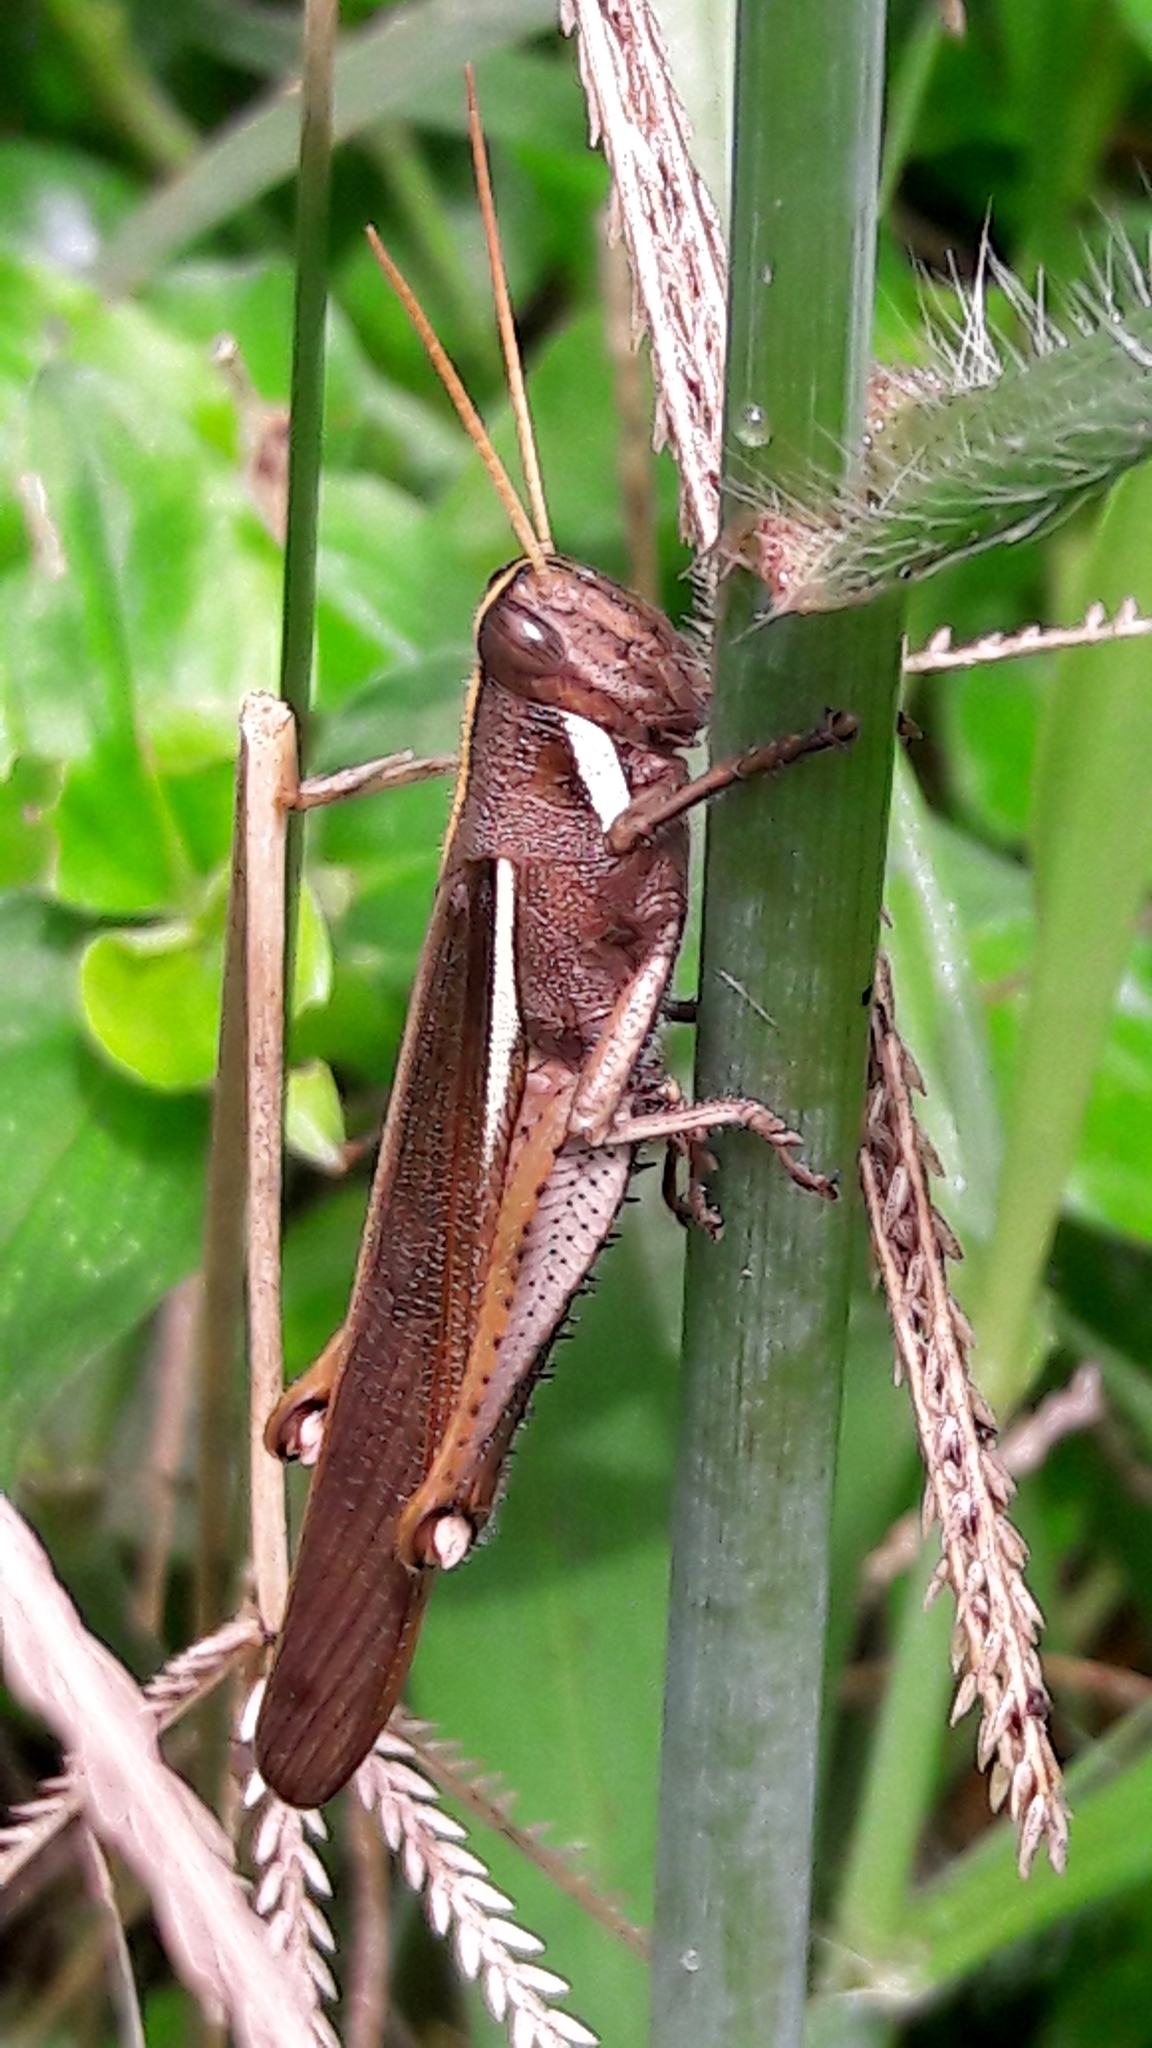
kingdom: Animalia
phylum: Arthropoda
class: Insecta
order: Orthoptera
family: Acrididae
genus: Schistocerca
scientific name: Schistocerca flavofasciata
